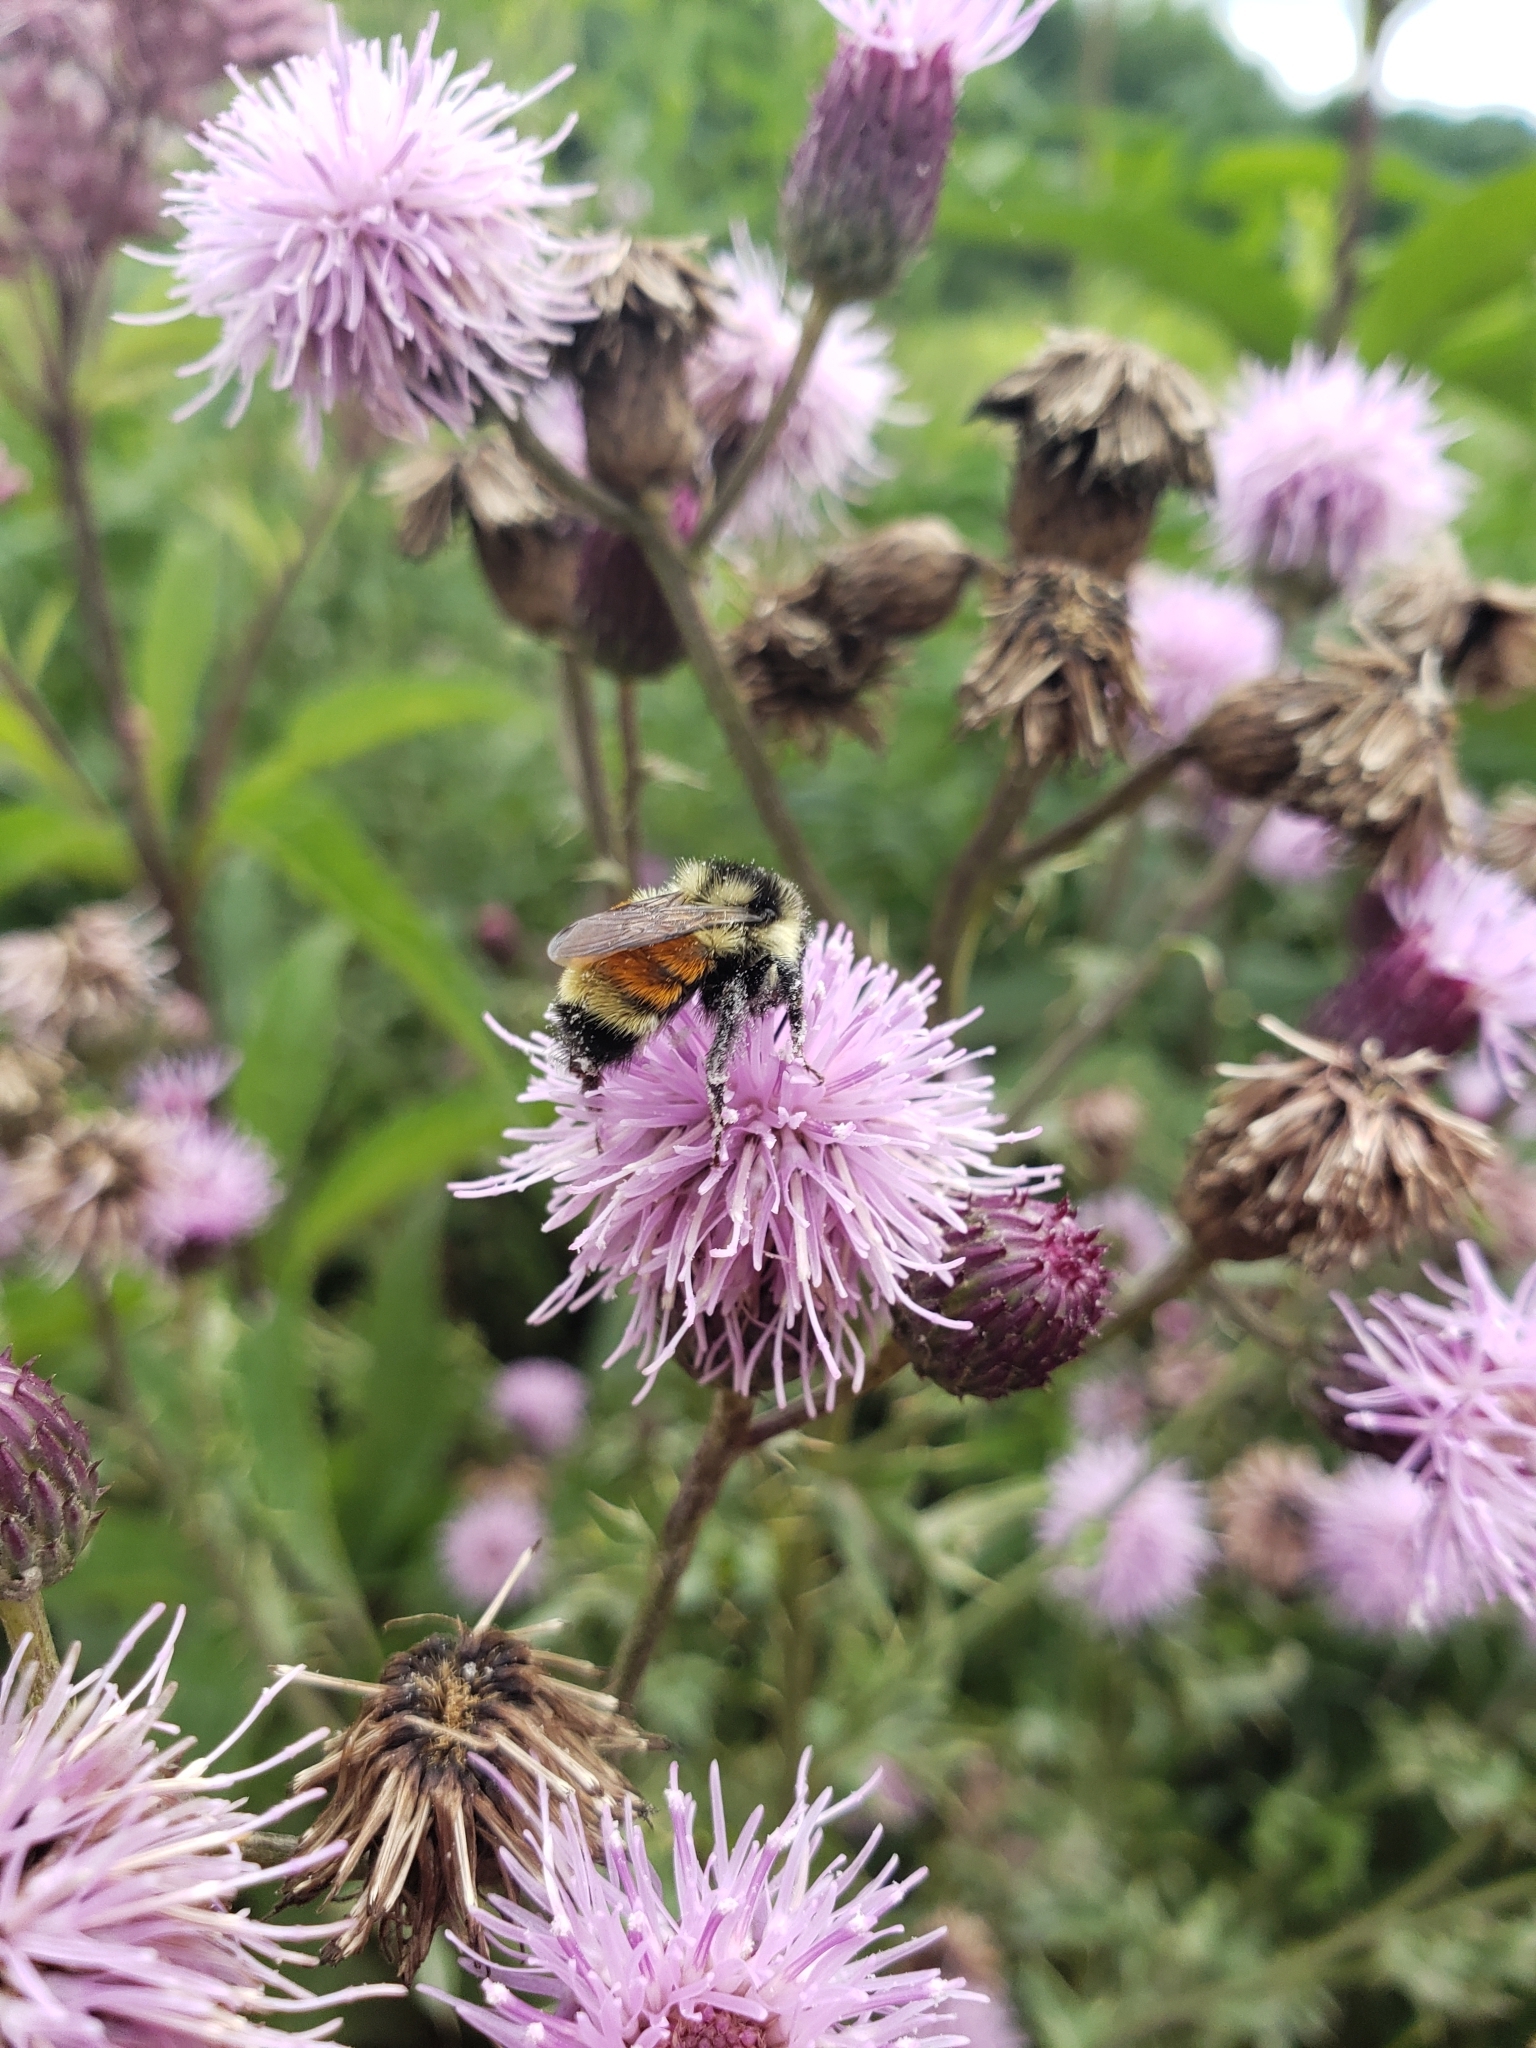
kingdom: Animalia
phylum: Arthropoda
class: Insecta
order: Hymenoptera
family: Apidae
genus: Bombus
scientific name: Bombus ternarius
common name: Tri-colored bumble bee
